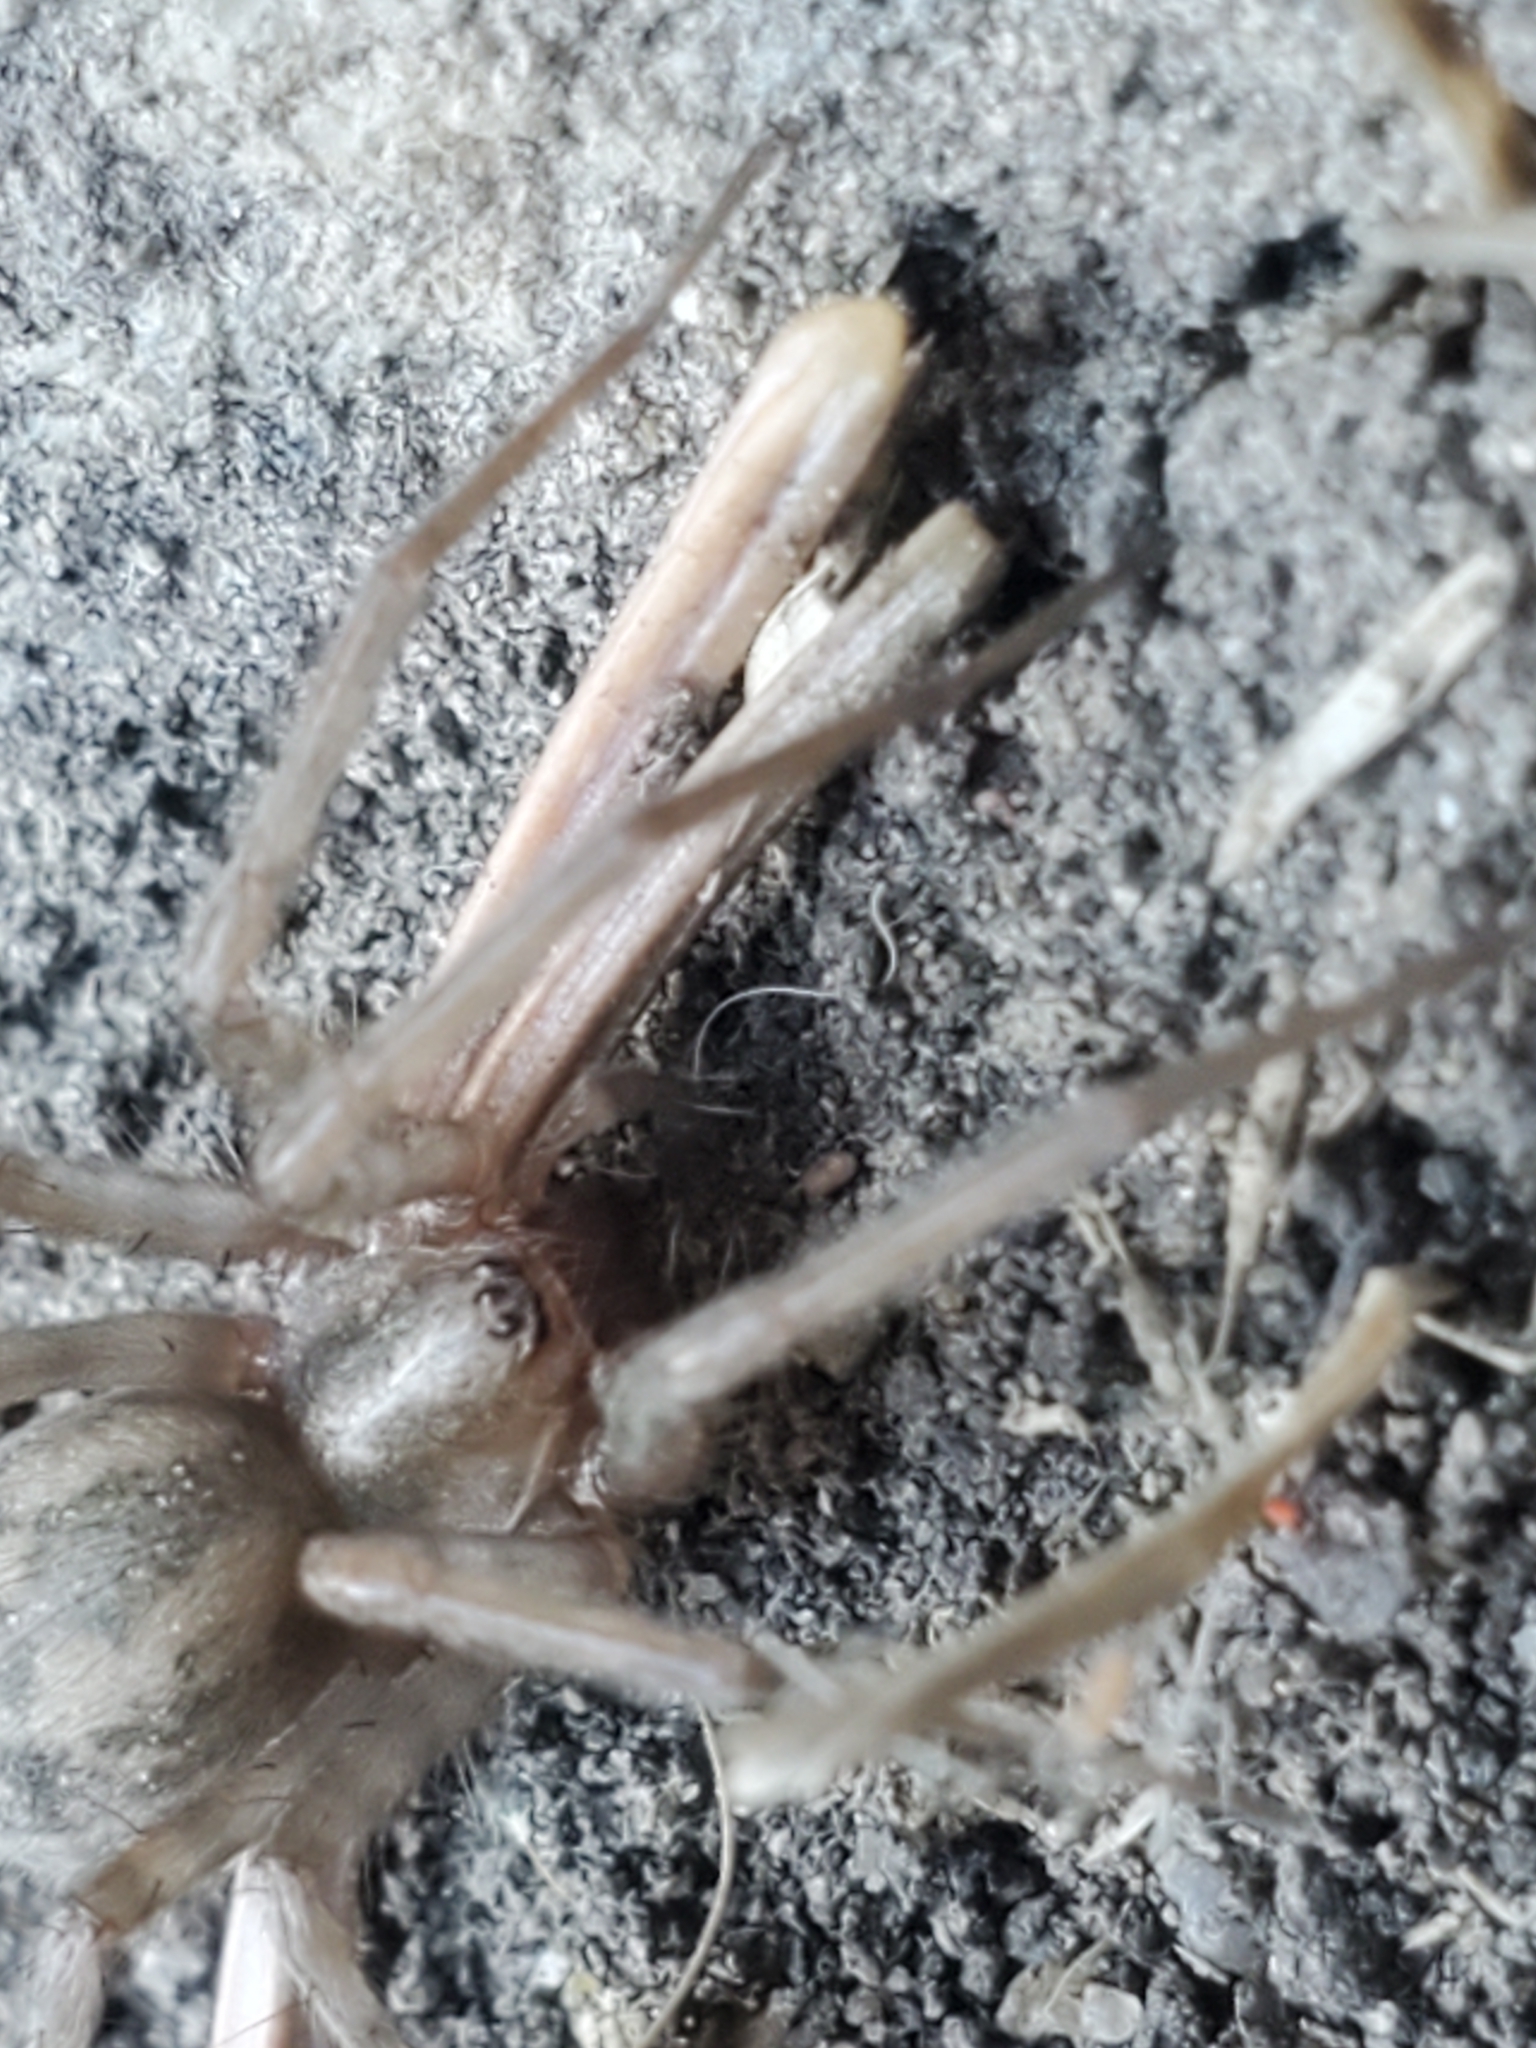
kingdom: Animalia
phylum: Arthropoda
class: Arachnida
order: Araneae
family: Agelenidae
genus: Tegenaria
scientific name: Tegenaria domestica
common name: Barn funnel weaver
